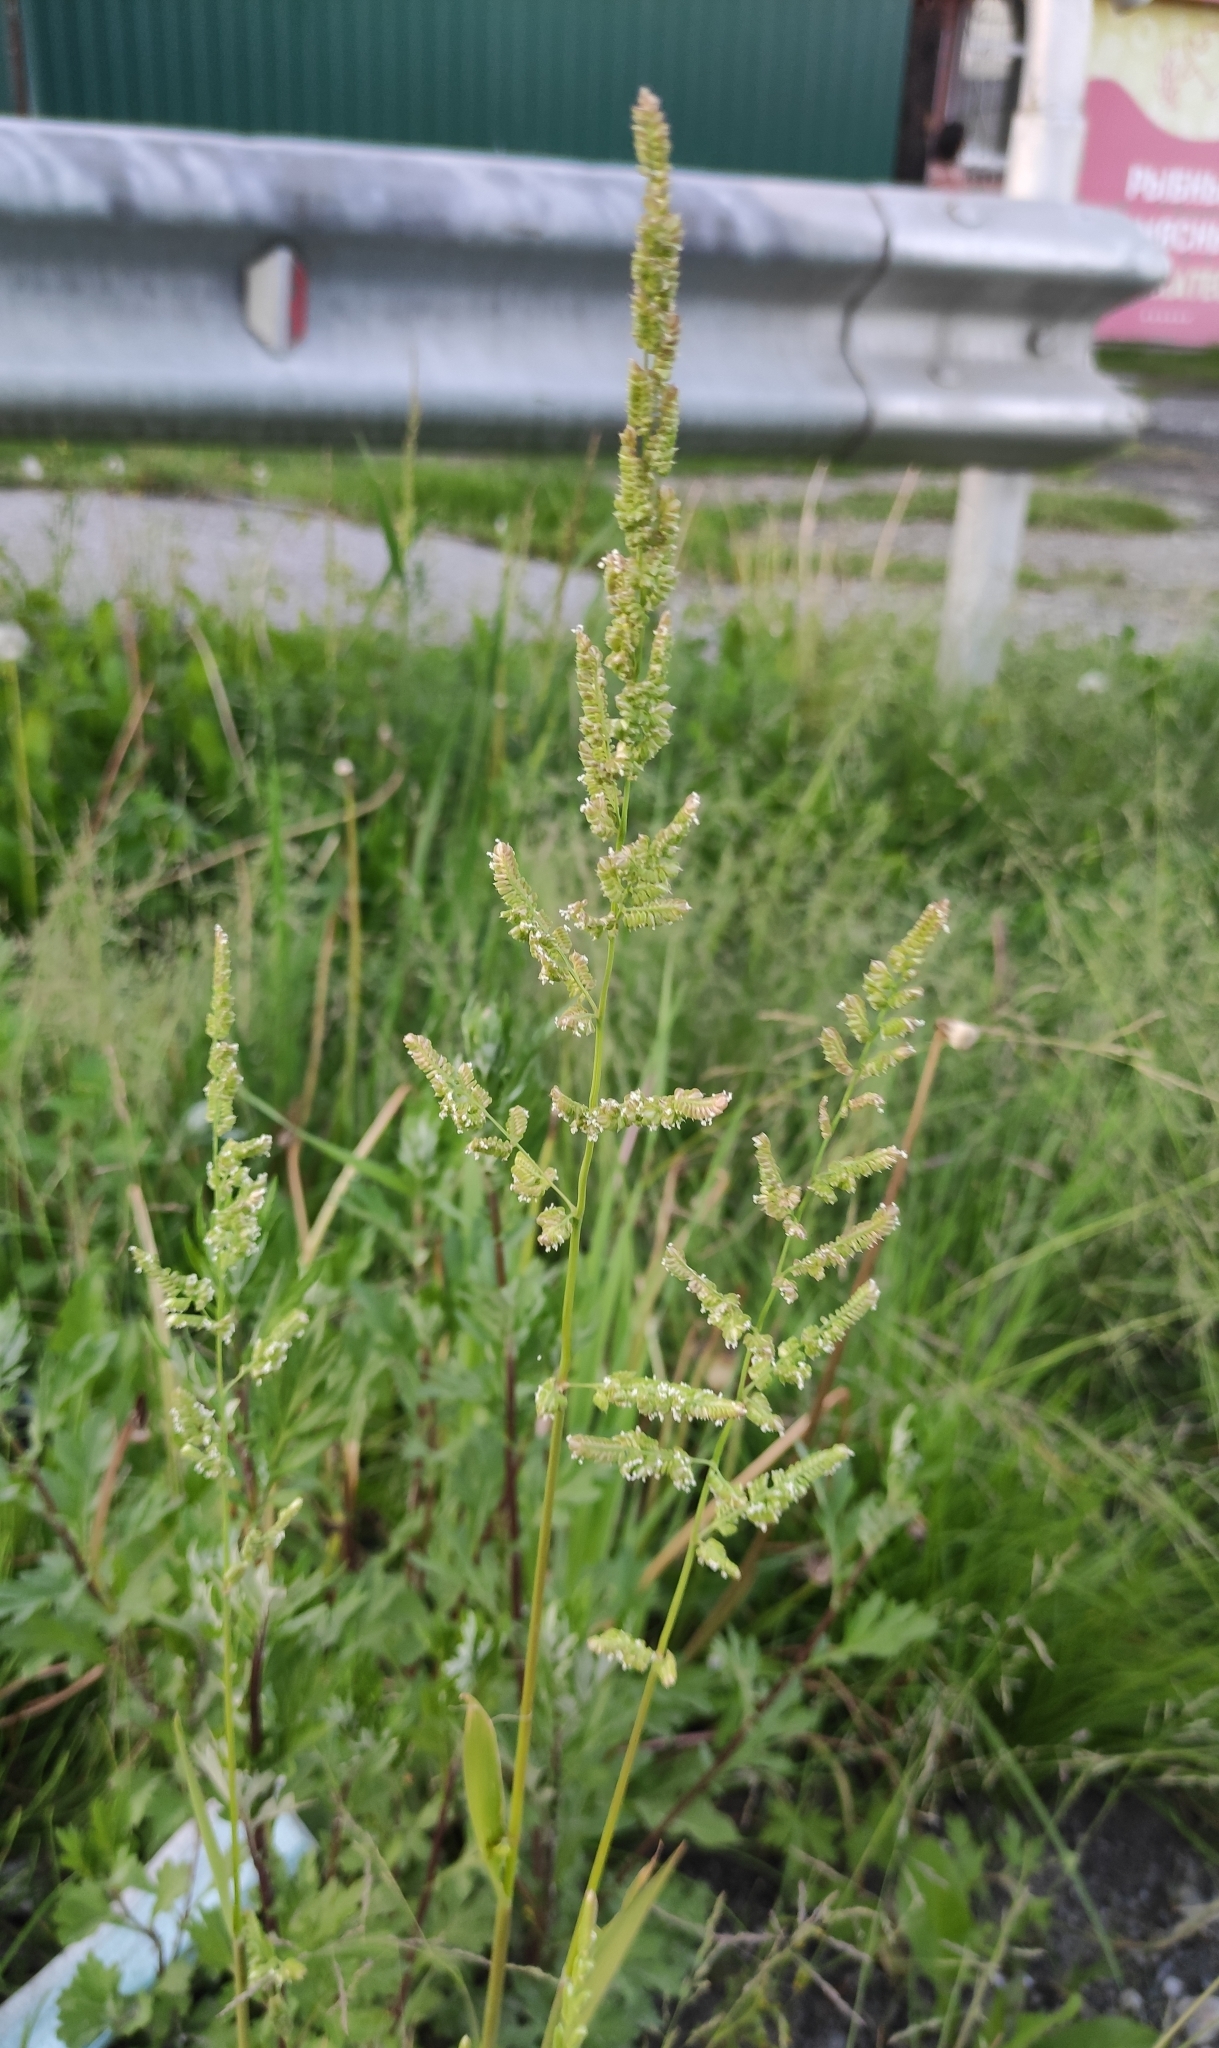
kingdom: Plantae
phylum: Tracheophyta
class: Liliopsida
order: Poales
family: Poaceae
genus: Beckmannia
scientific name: Beckmannia syzigachne
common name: American slough-grass
